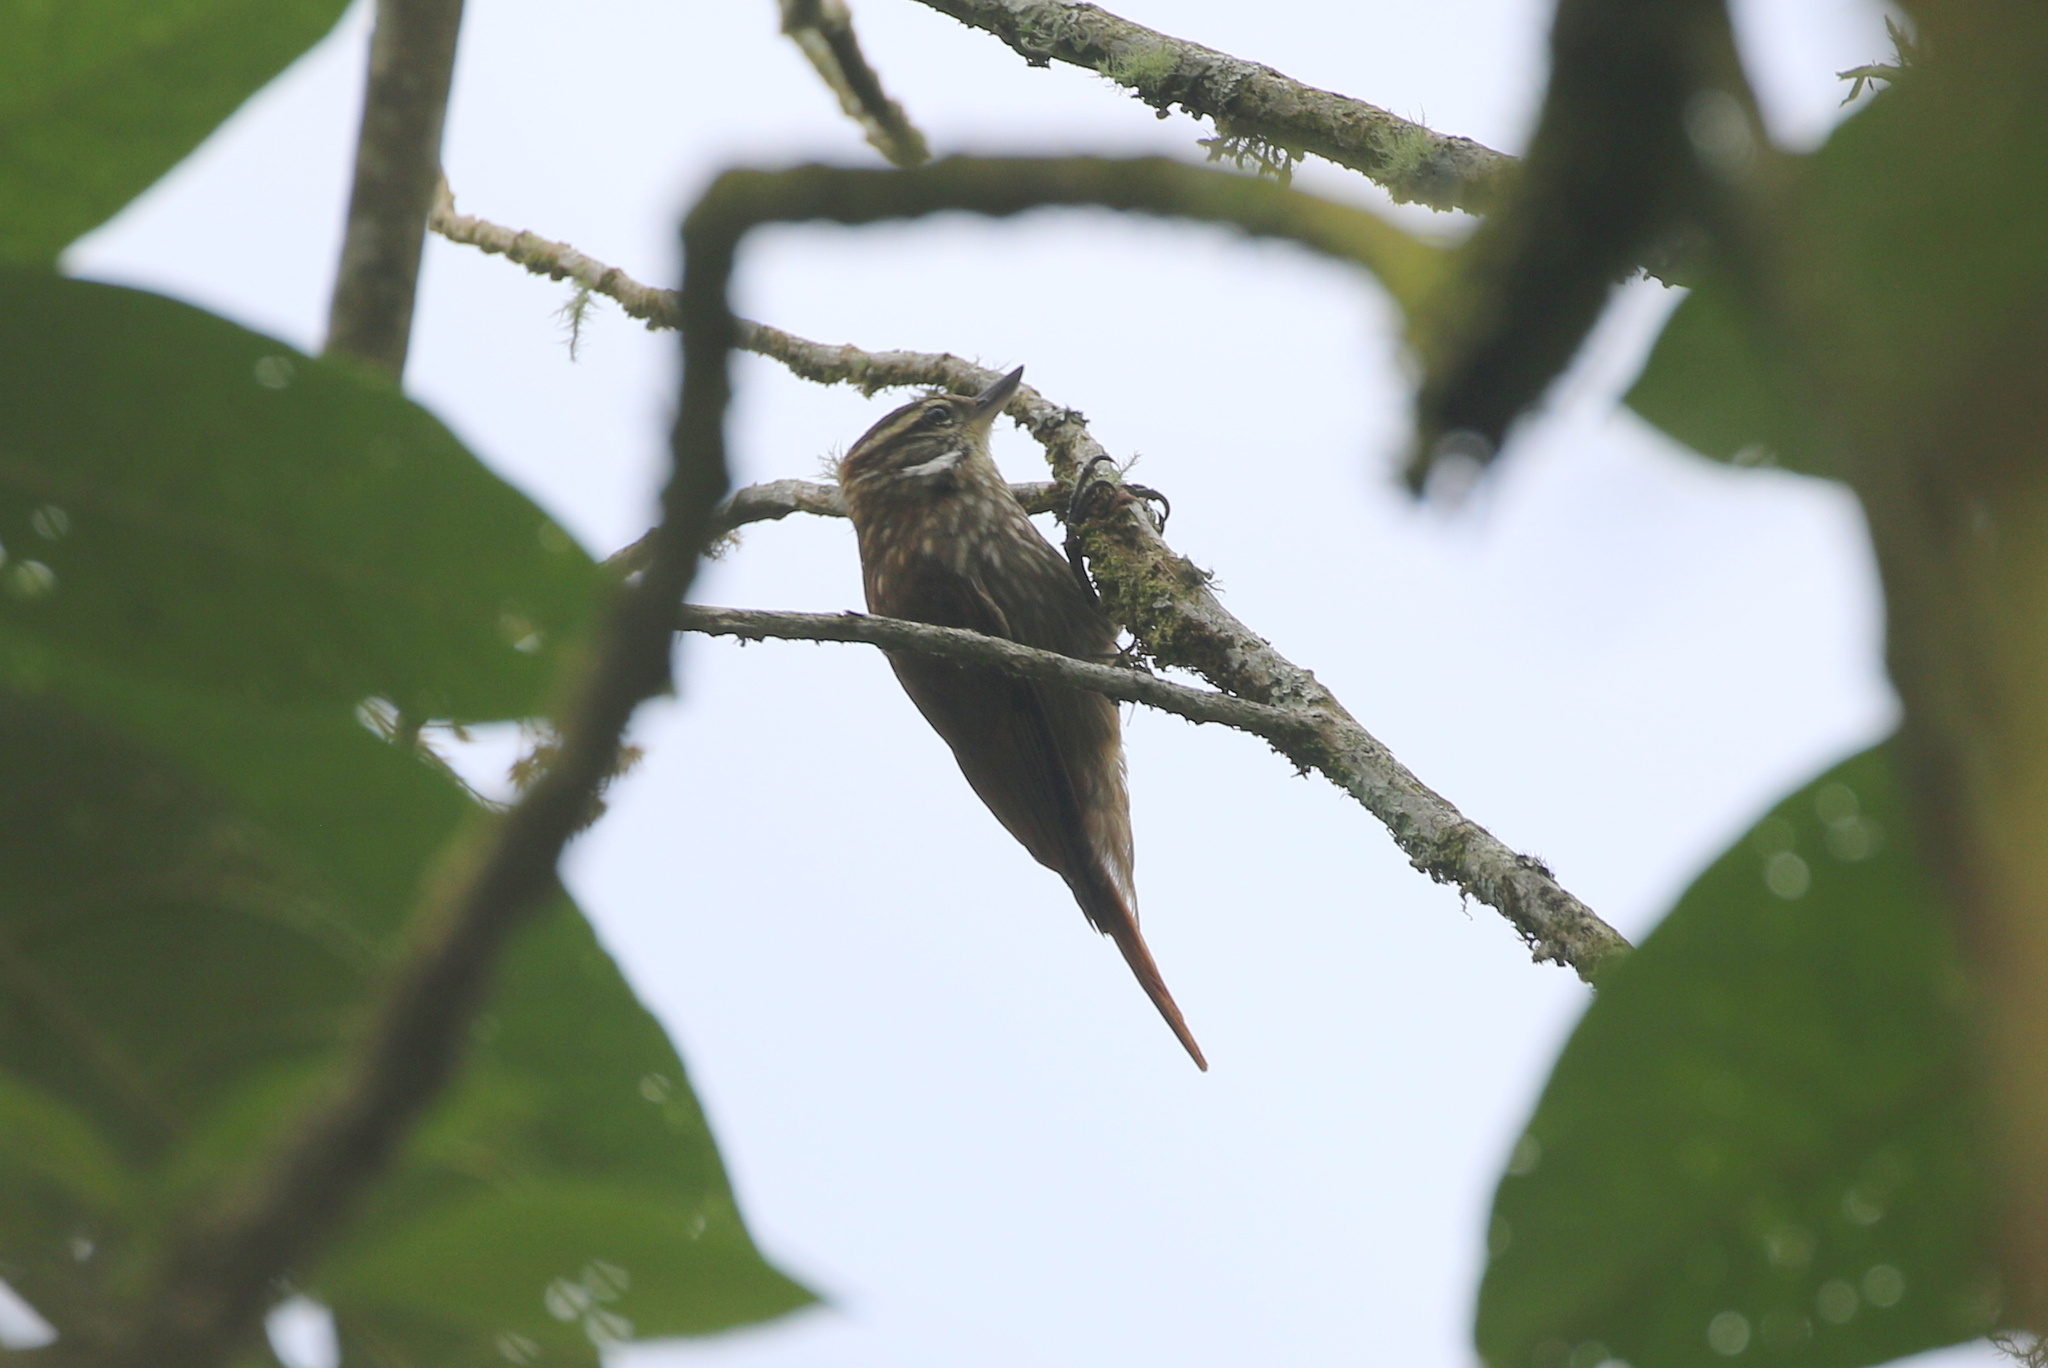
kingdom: Animalia
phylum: Chordata
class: Aves
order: Passeriformes
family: Furnariidae
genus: Xenops
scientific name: Xenops rutilans
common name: Streaked xenops
